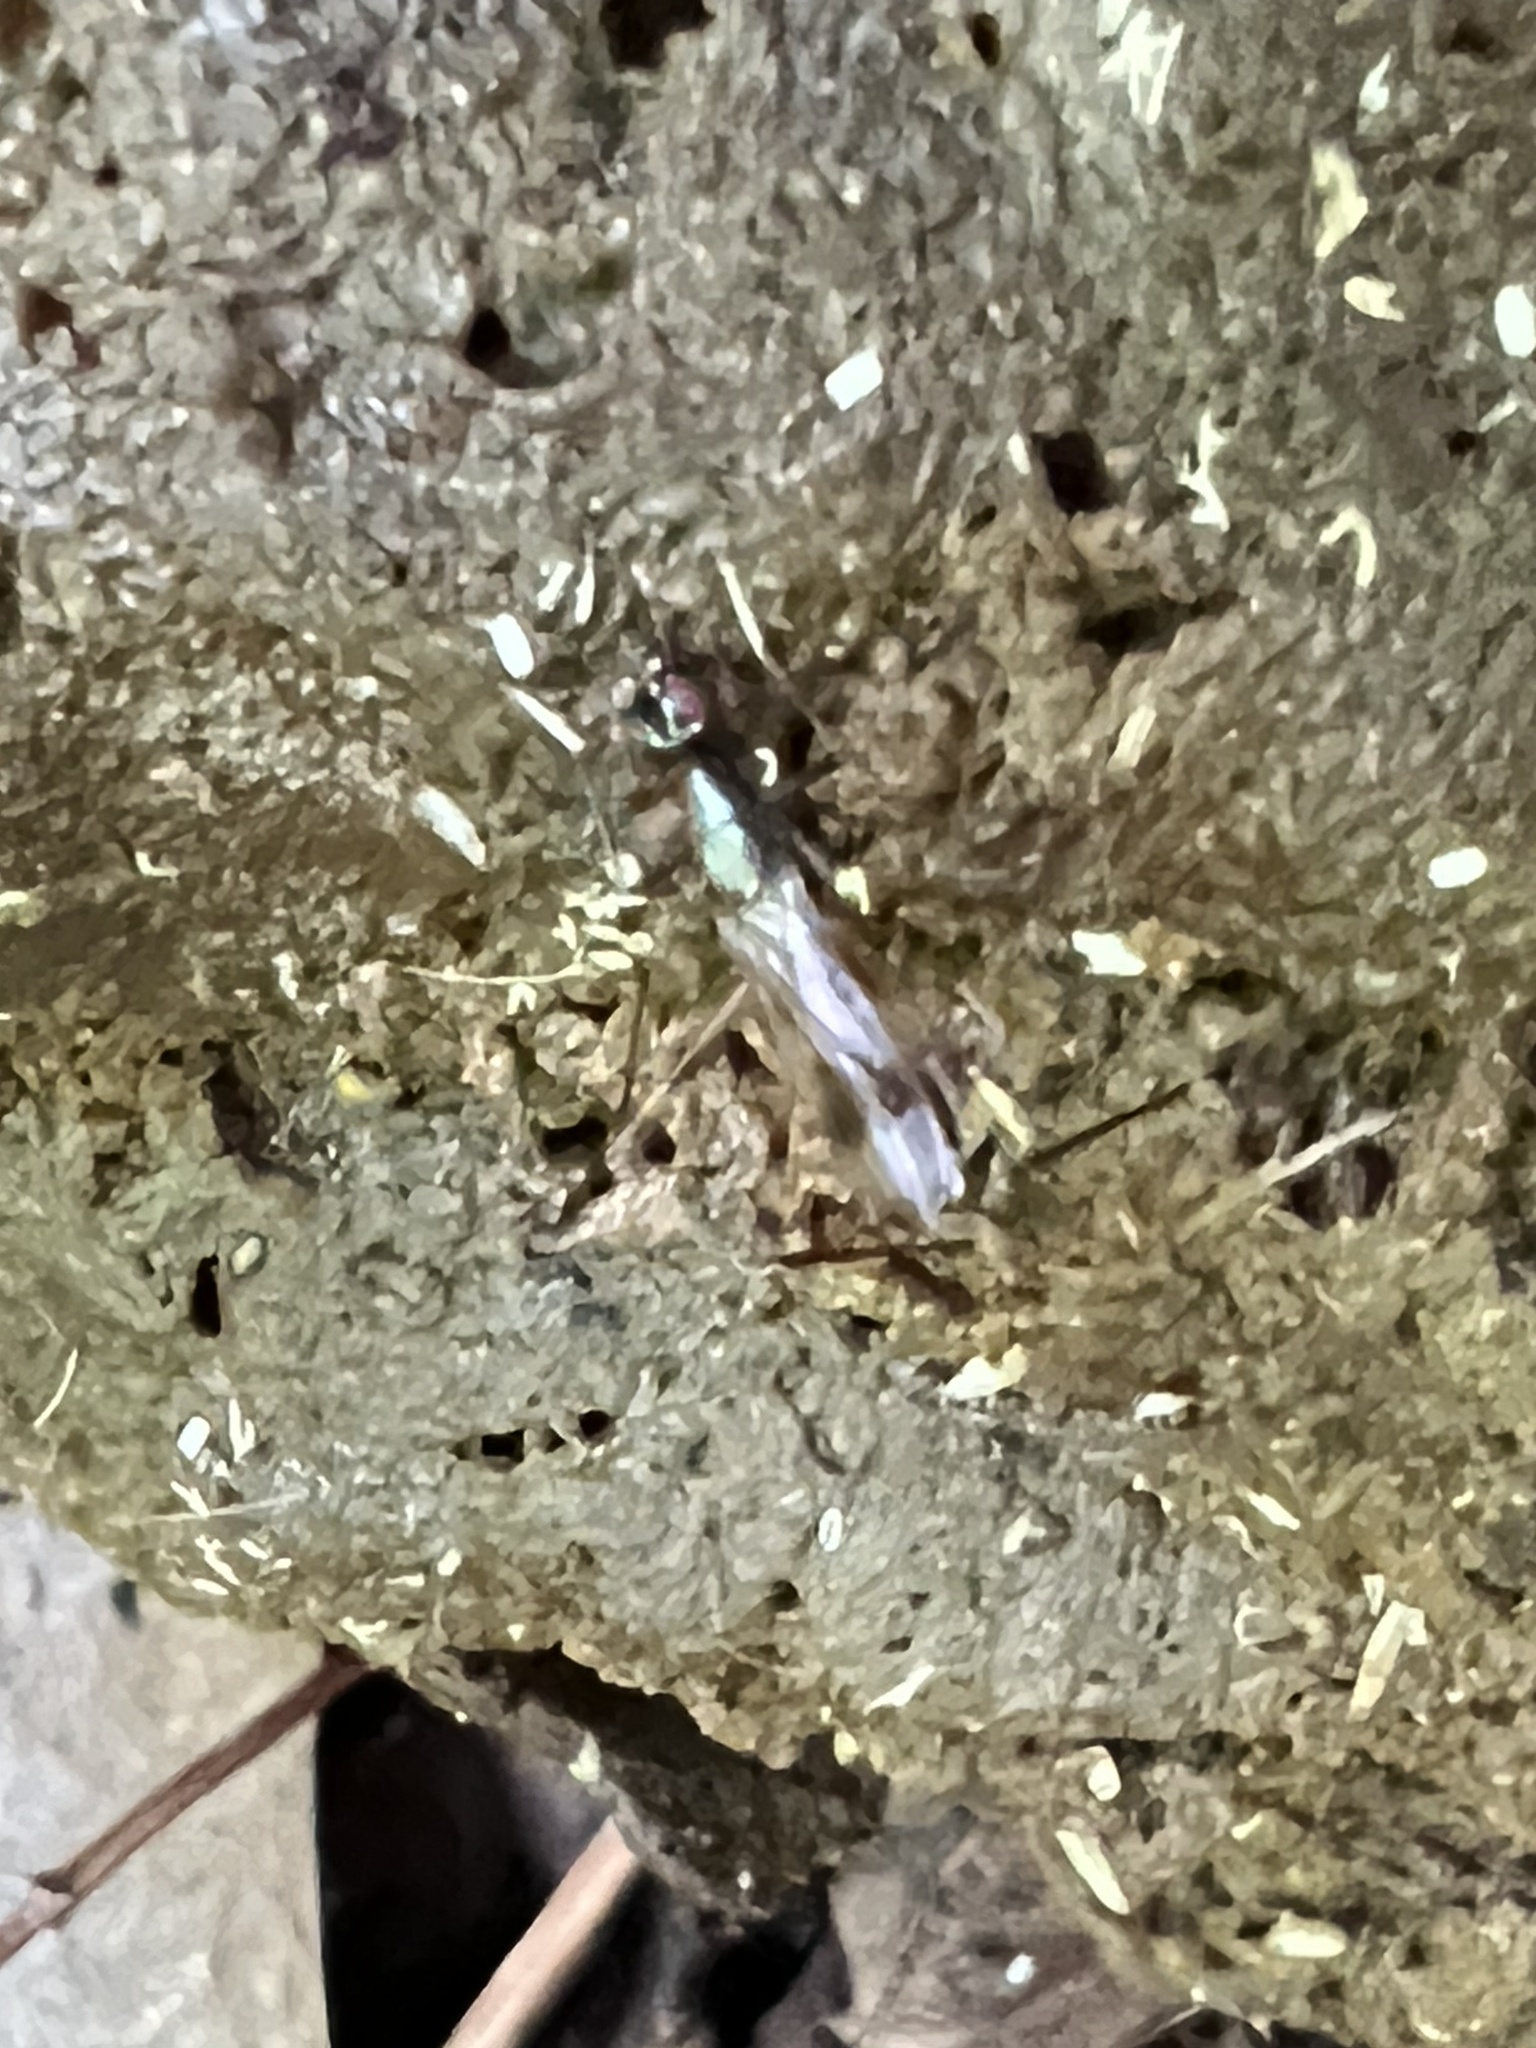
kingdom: Animalia
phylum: Arthropoda
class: Insecta
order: Diptera
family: Micropezidae
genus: Rainieria
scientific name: Rainieria antennaepes
